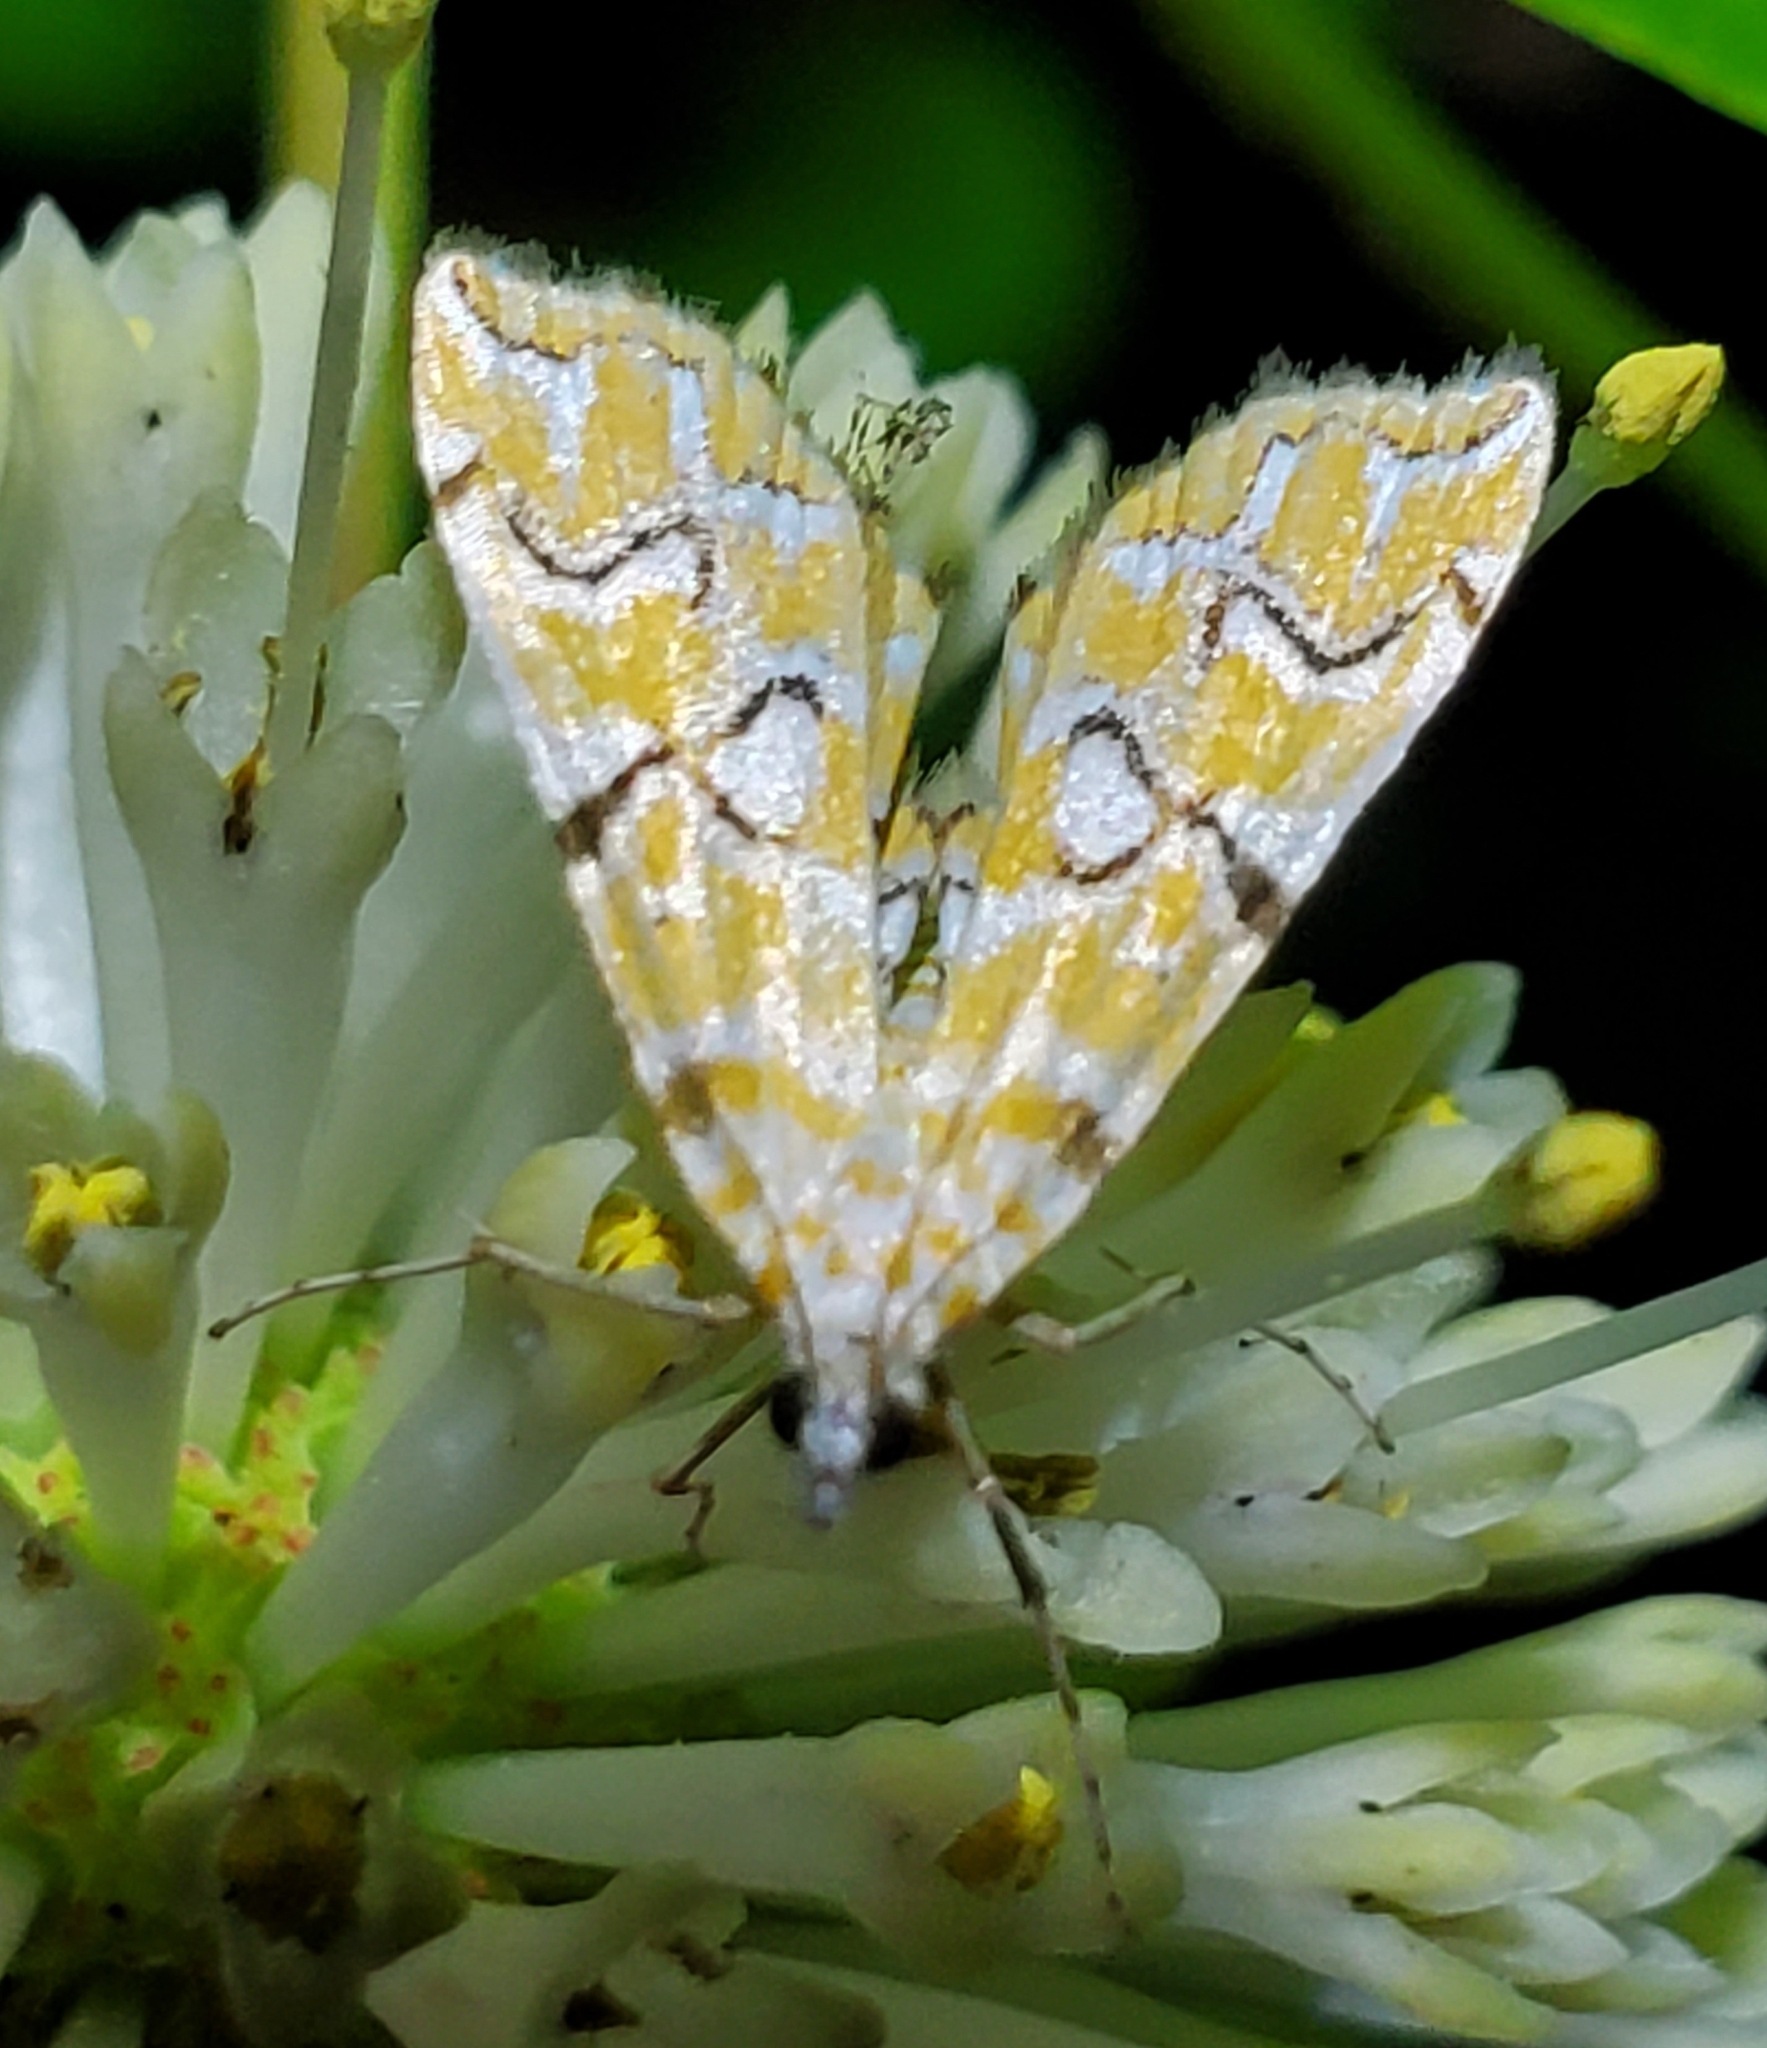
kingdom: Animalia
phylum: Arthropoda
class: Insecta
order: Lepidoptera
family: Crambidae
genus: Elophila
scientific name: Elophila icciusalis
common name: Pondside pyralid moth
